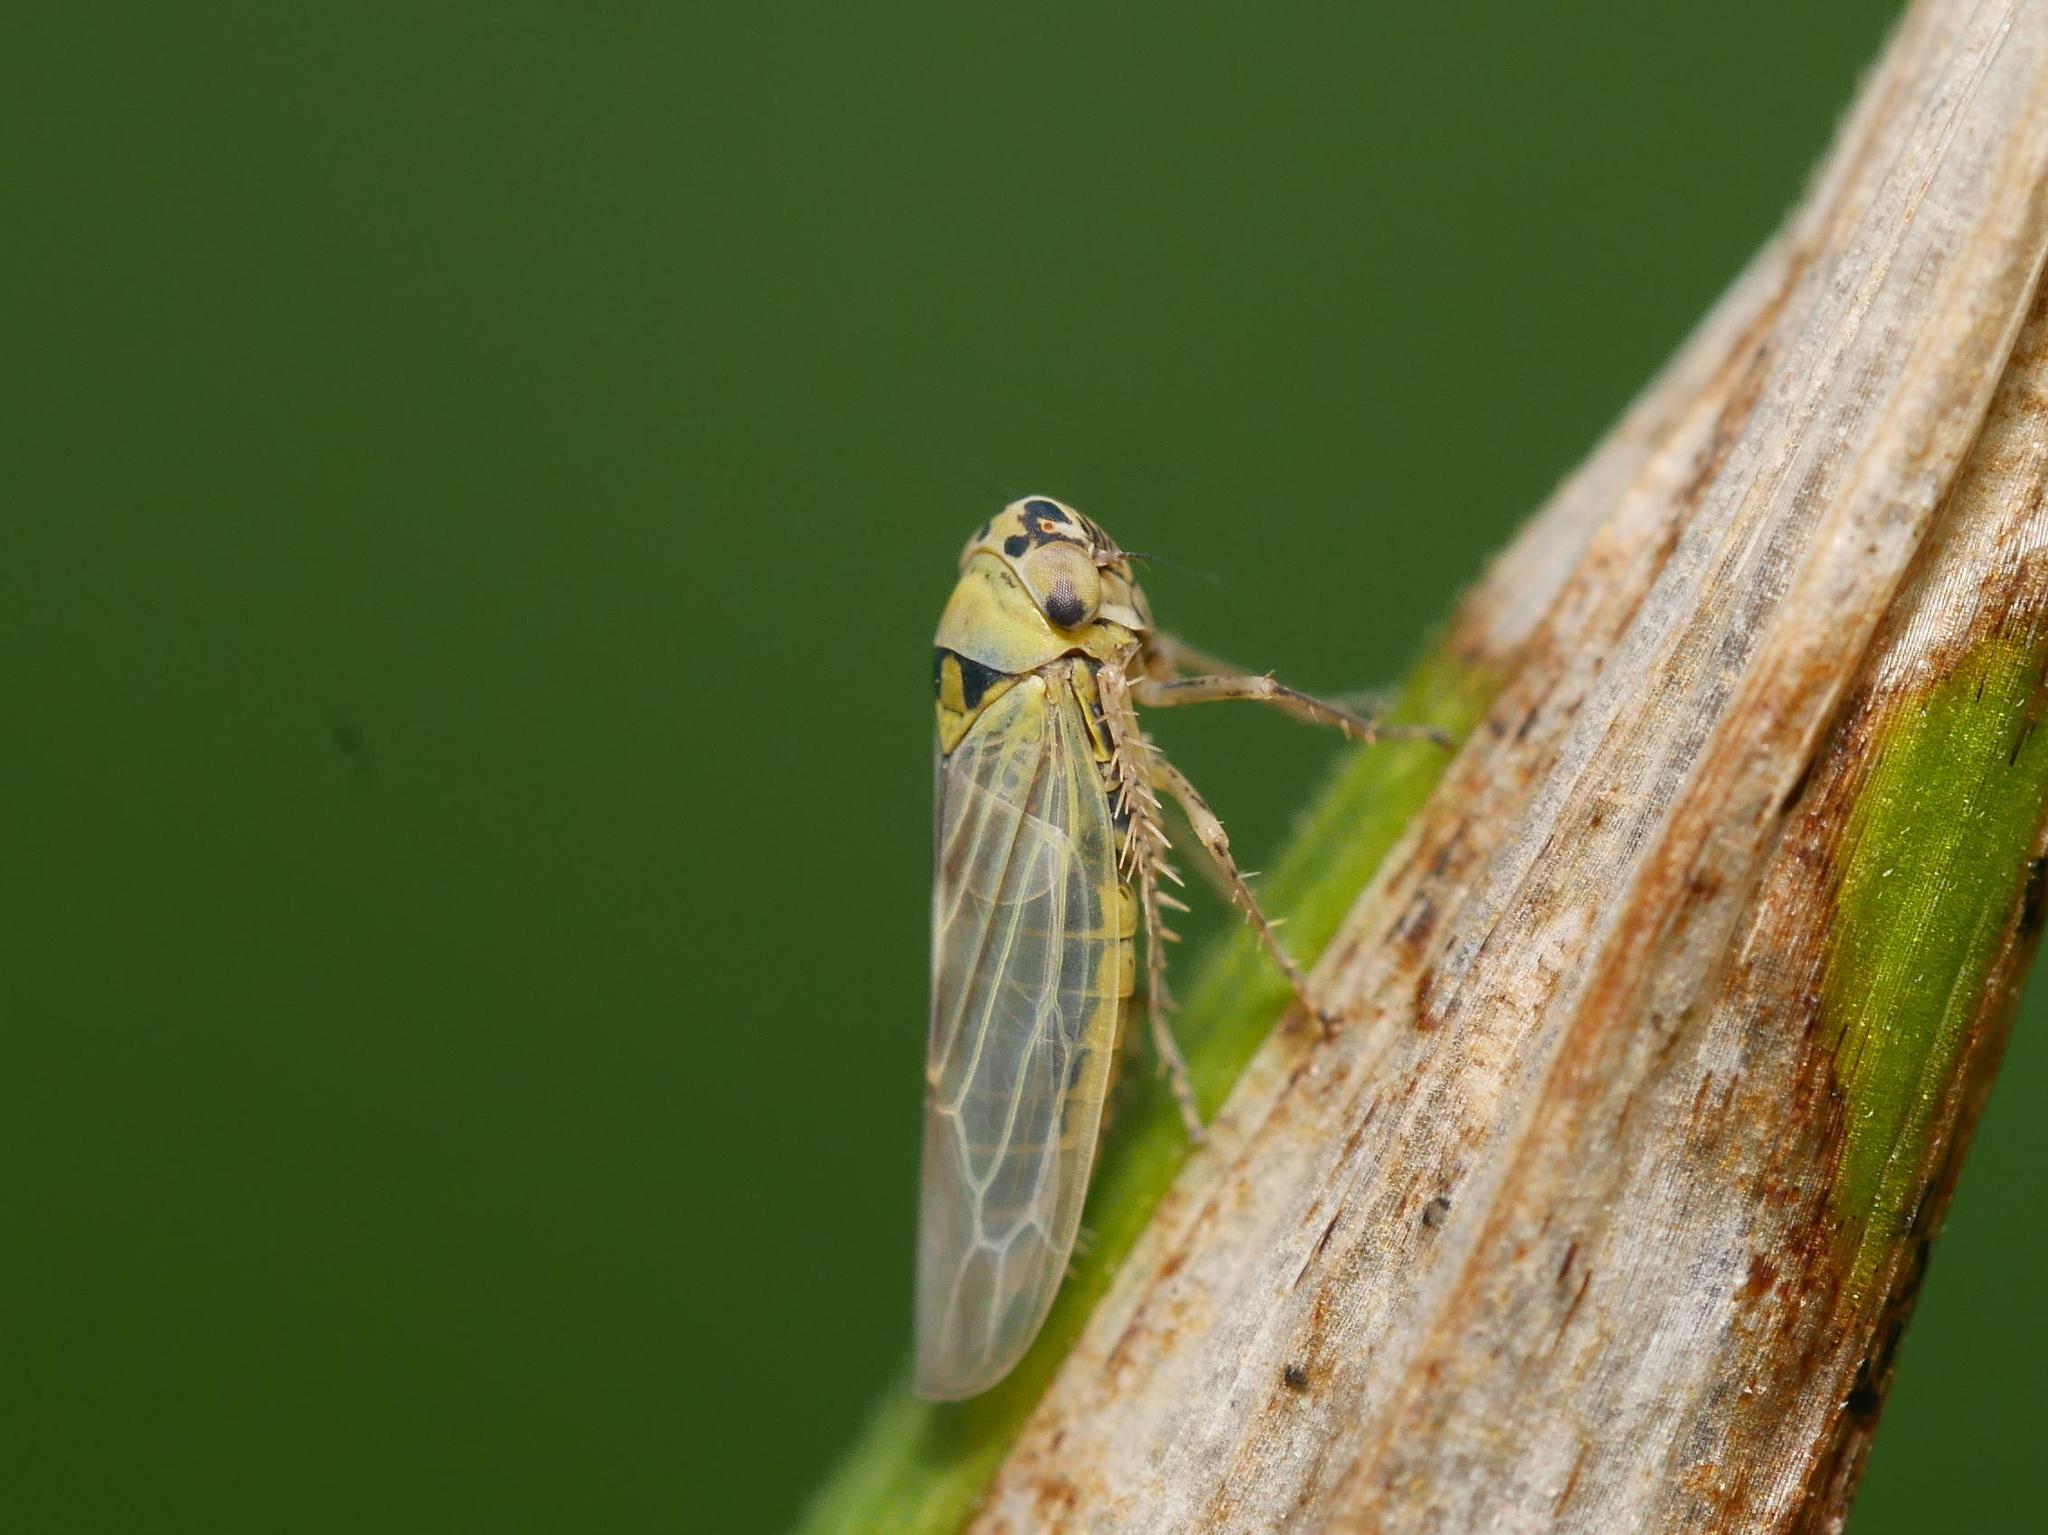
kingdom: Animalia
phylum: Arthropoda
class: Insecta
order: Hemiptera
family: Cicadellidae
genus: Cicadella
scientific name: Cicadella viridis
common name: Leafhopper
